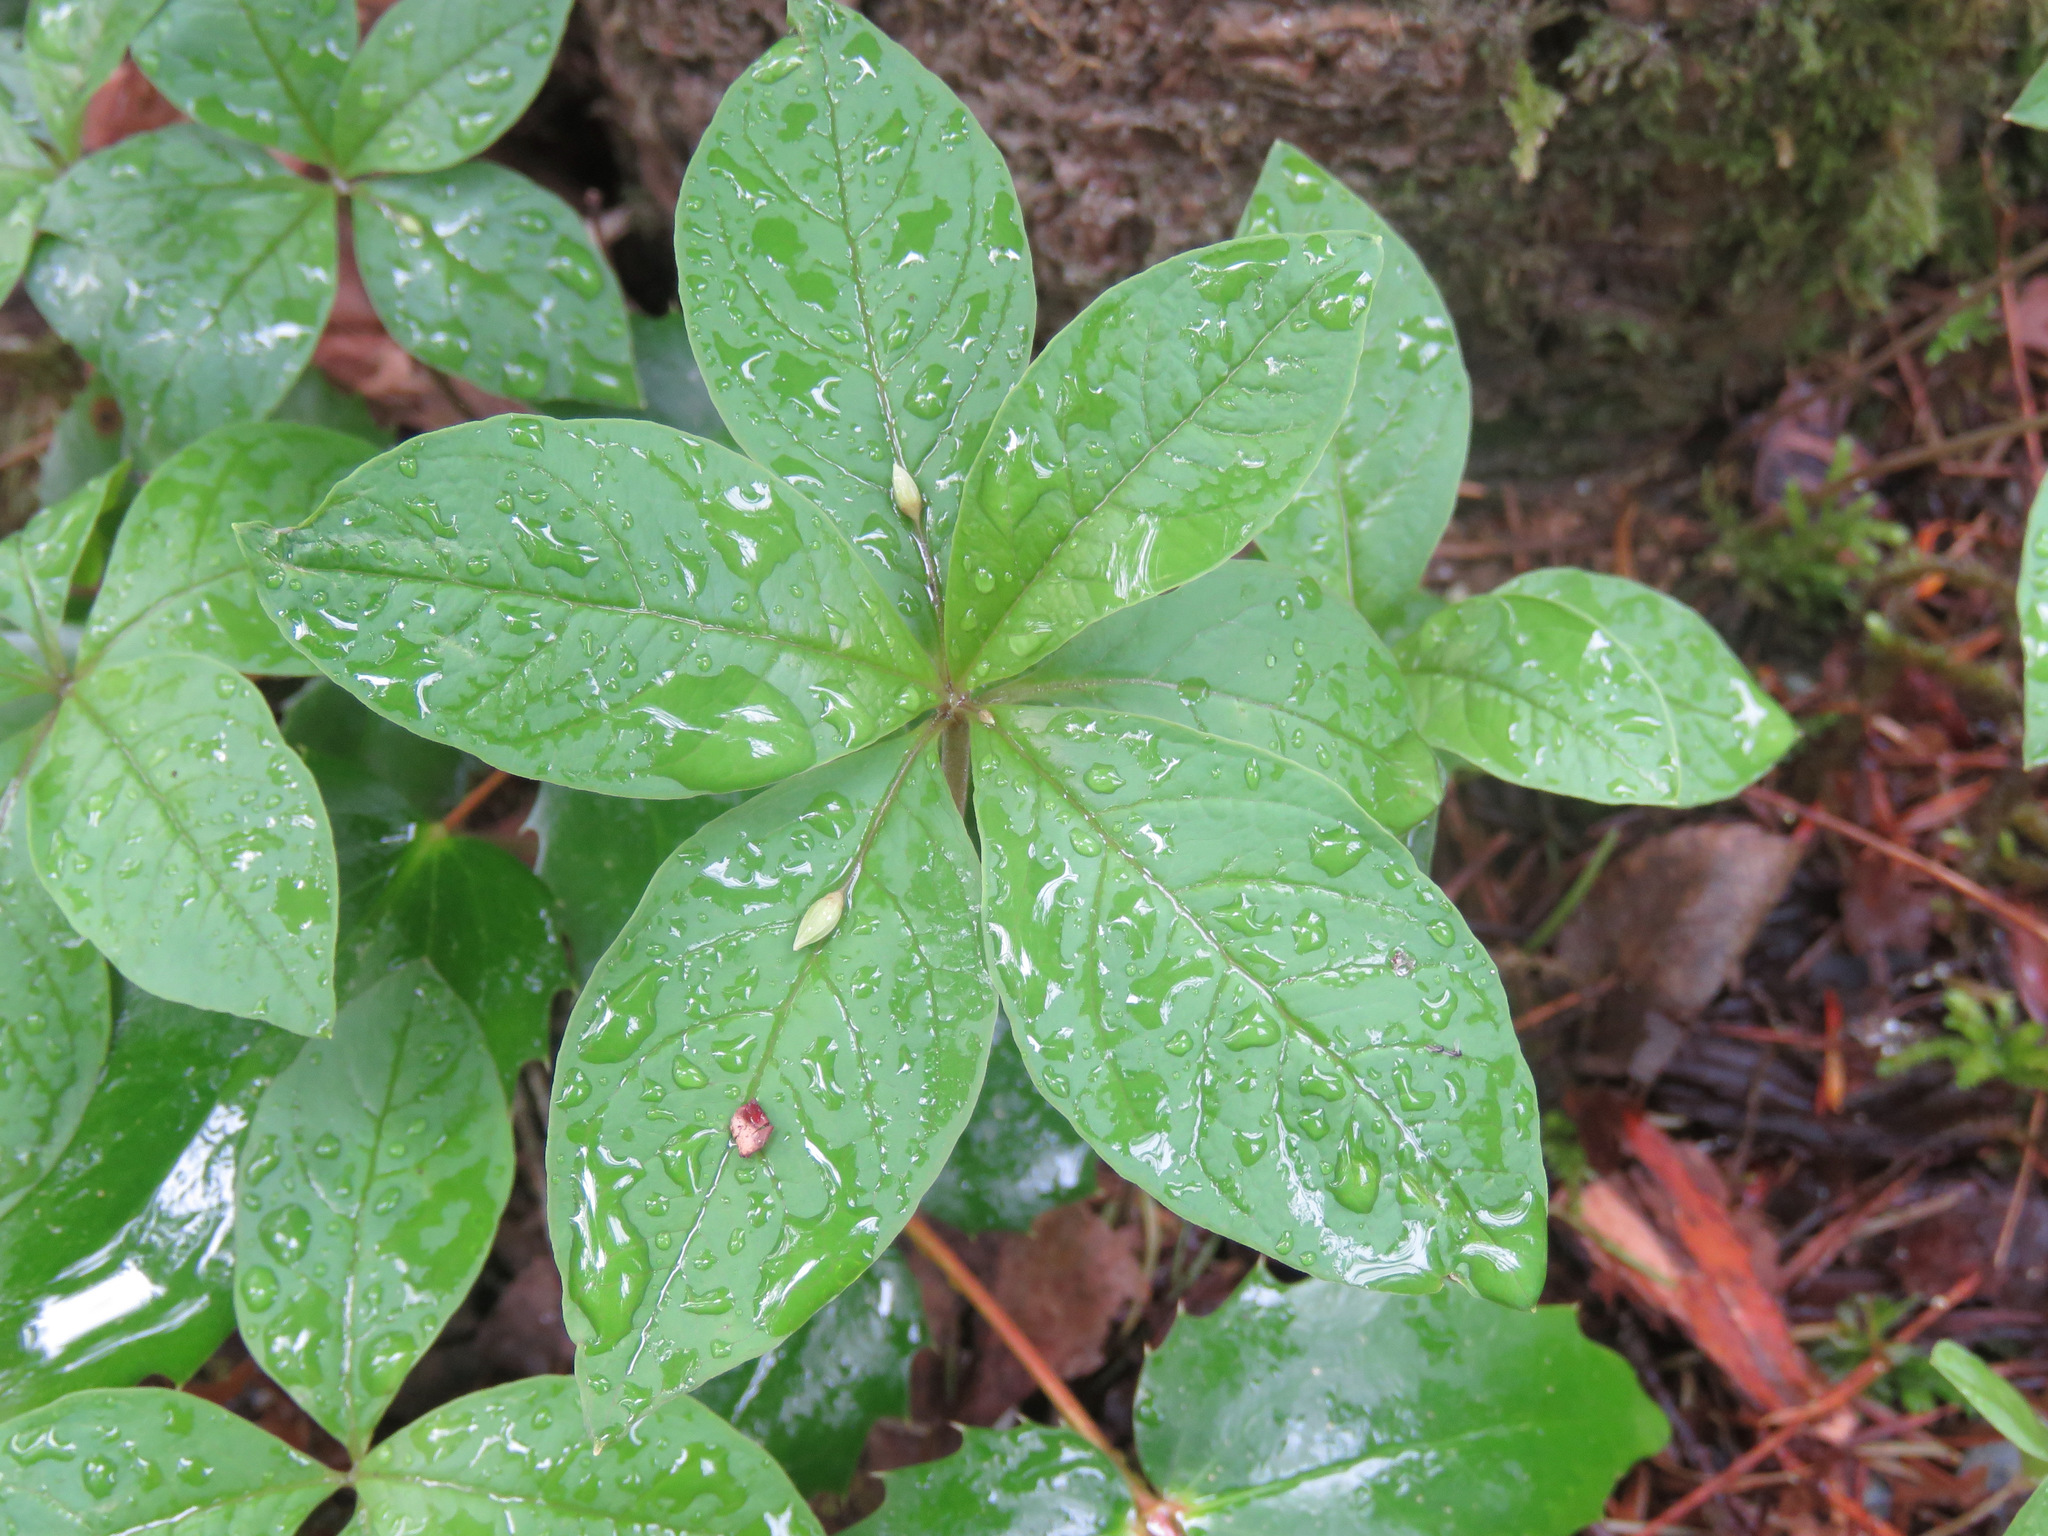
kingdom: Plantae
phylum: Tracheophyta
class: Magnoliopsida
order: Ericales
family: Primulaceae
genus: Lysimachia
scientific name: Lysimachia latifolia
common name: Pacific starflower
